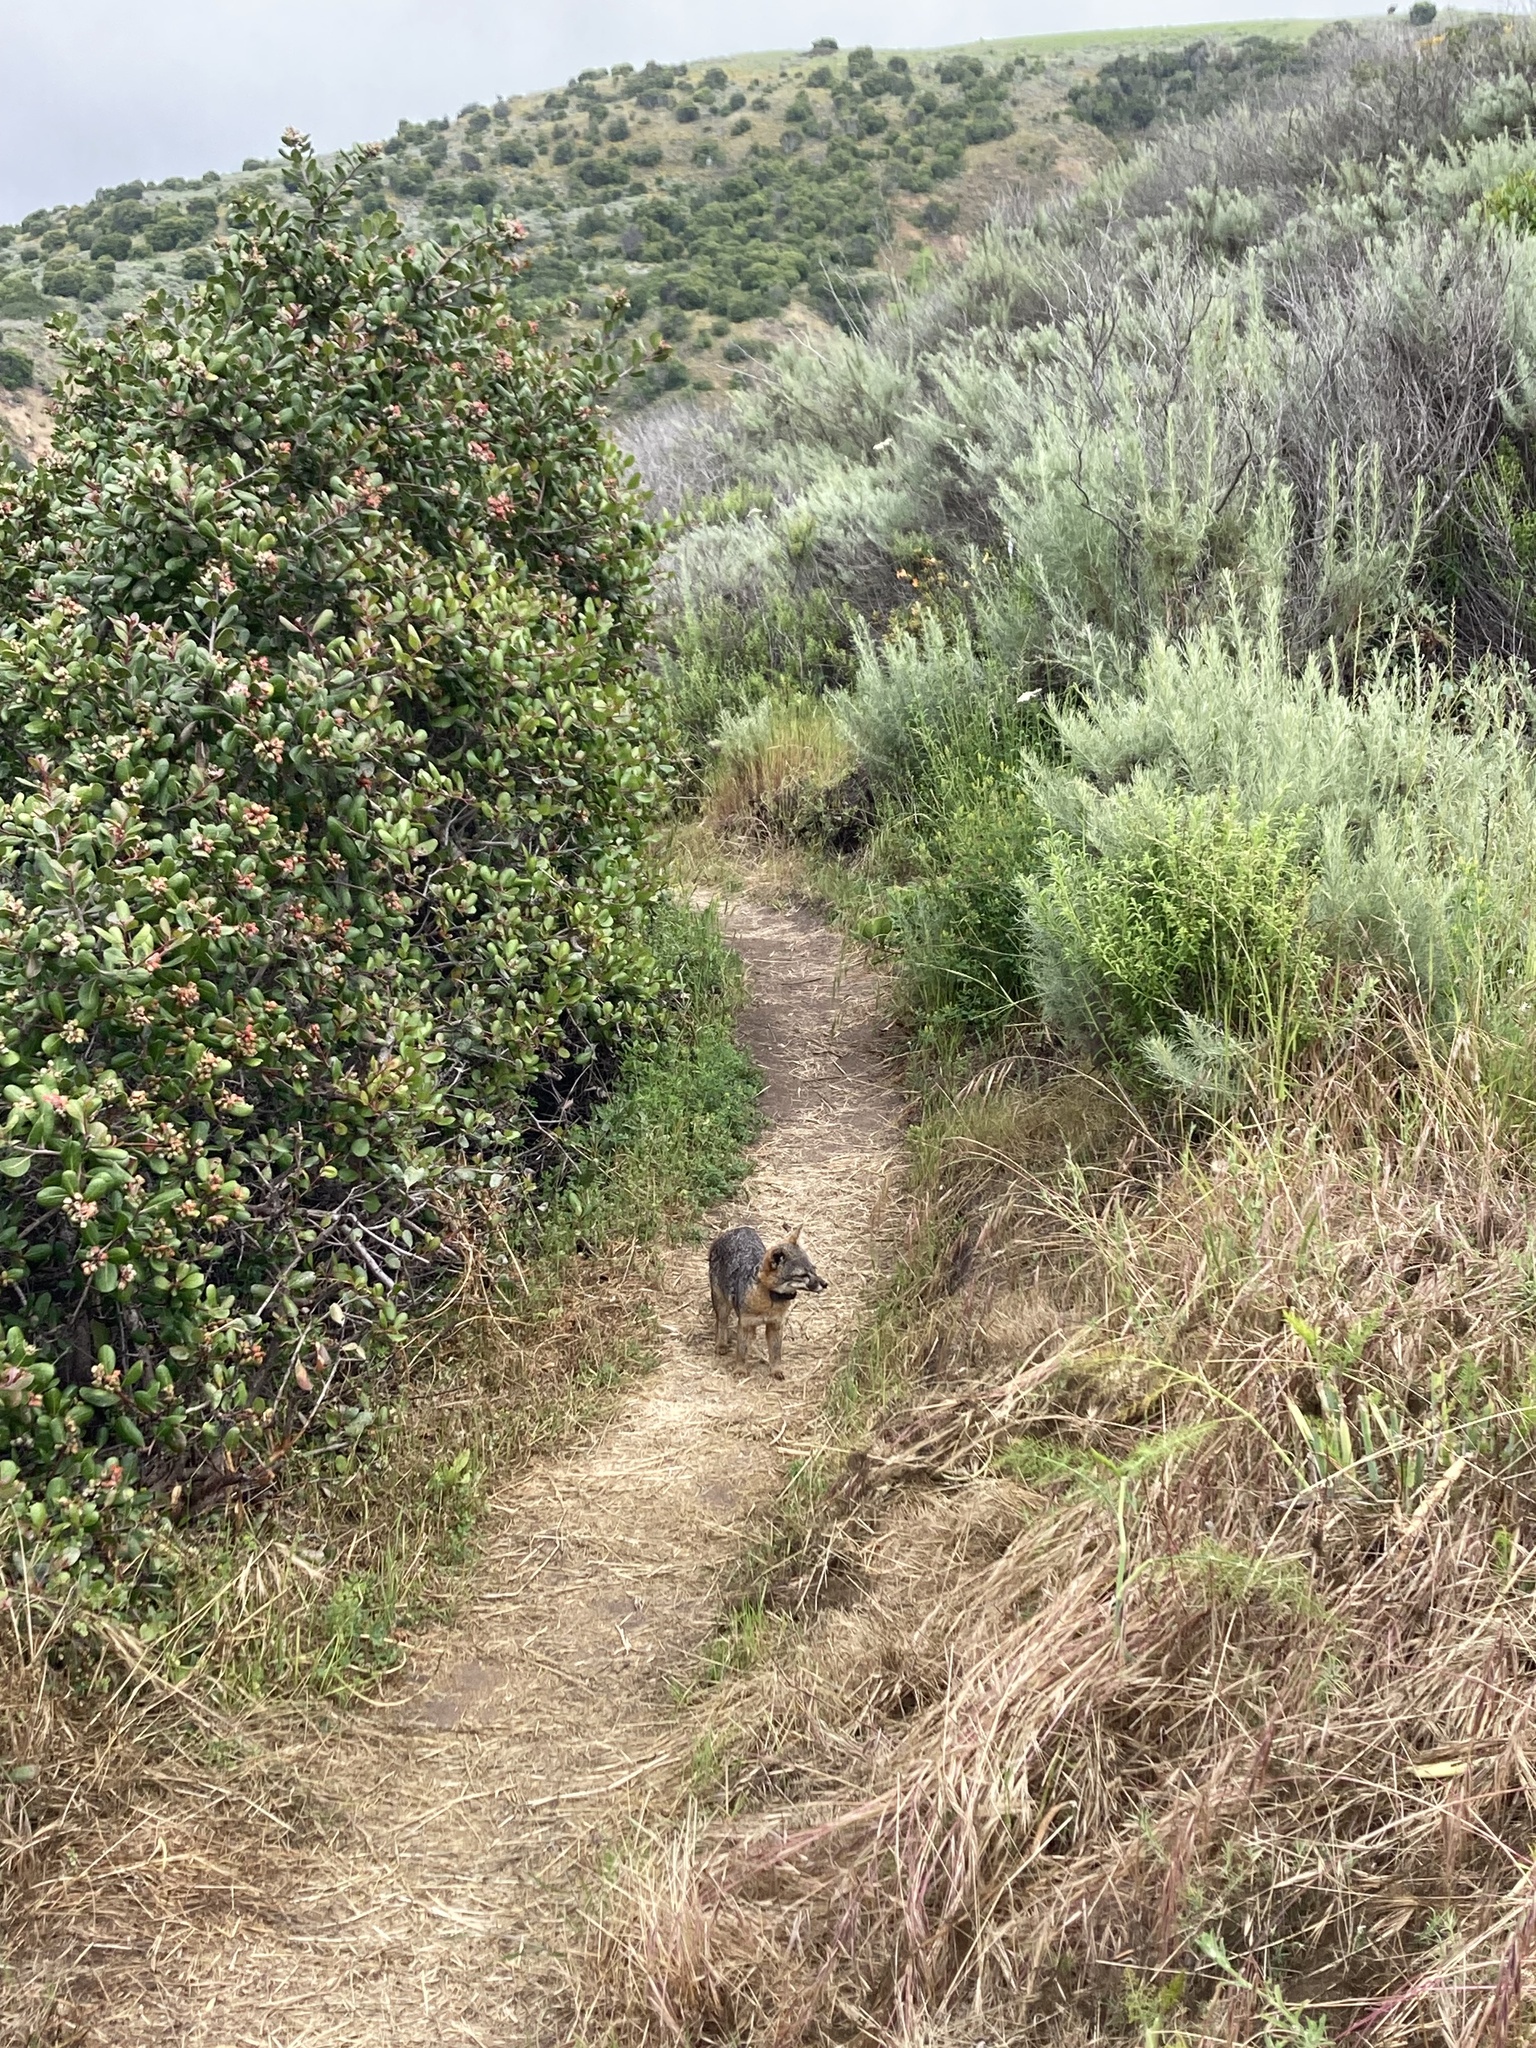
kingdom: Animalia
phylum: Chordata
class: Mammalia
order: Carnivora
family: Canidae
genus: Urocyon
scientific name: Urocyon littoralis
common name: Island gray fox
